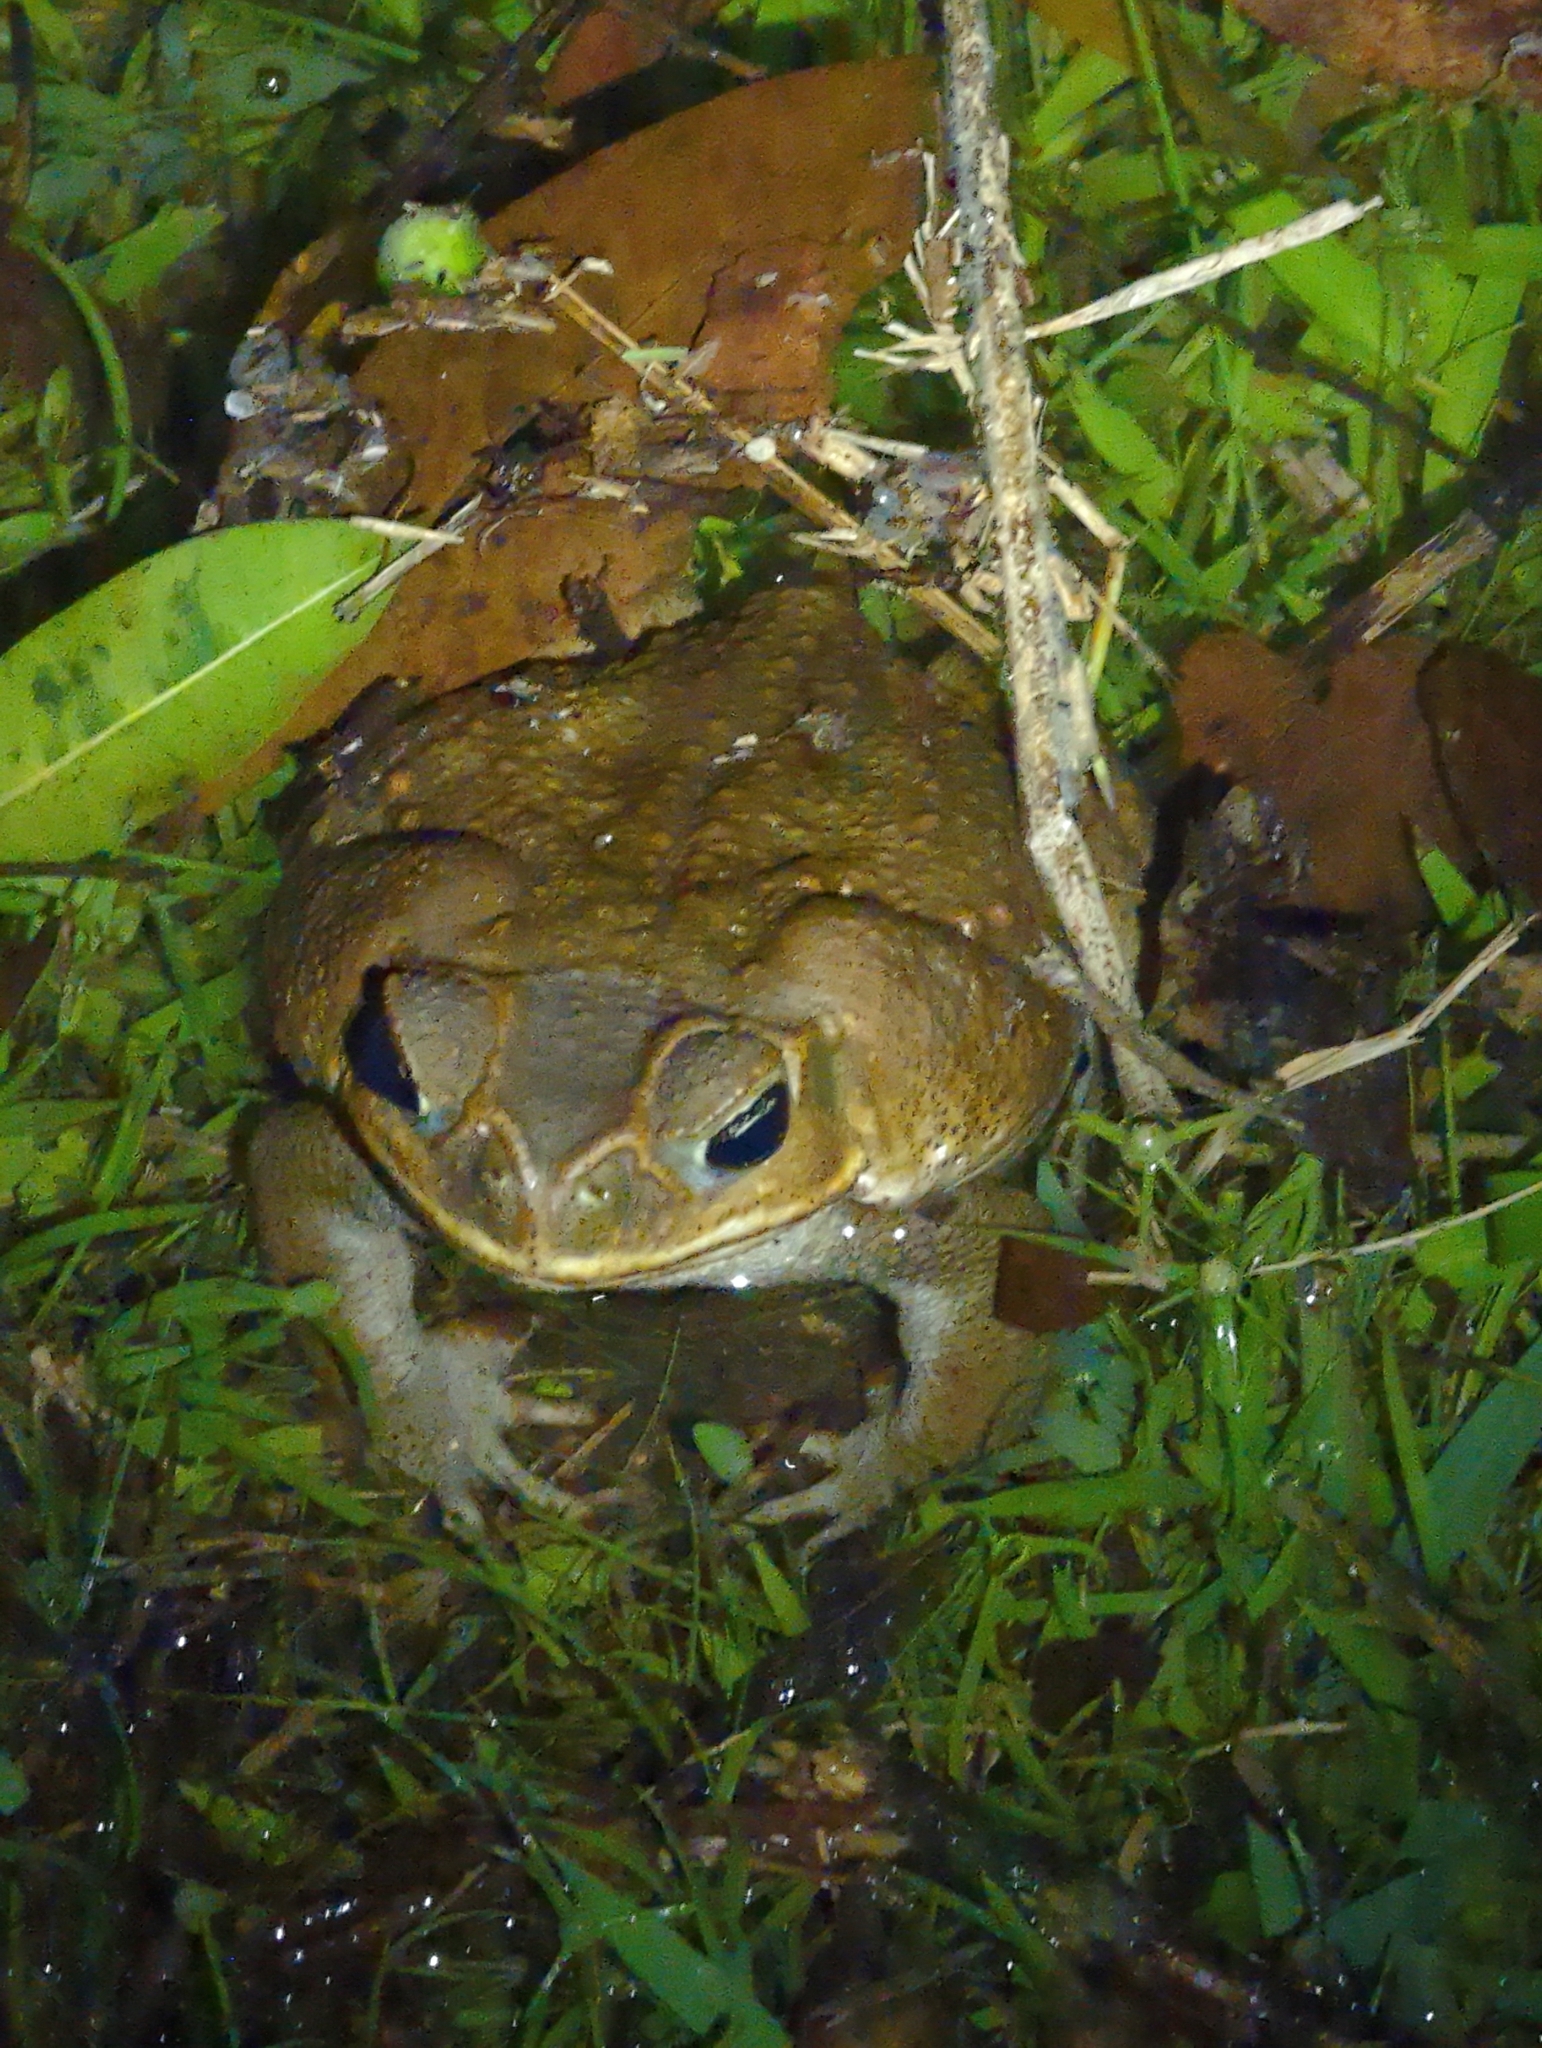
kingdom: Animalia
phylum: Chordata
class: Amphibia
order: Anura
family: Bufonidae
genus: Rhinella
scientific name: Rhinella horribilis
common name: Mesoamerican cane toad
